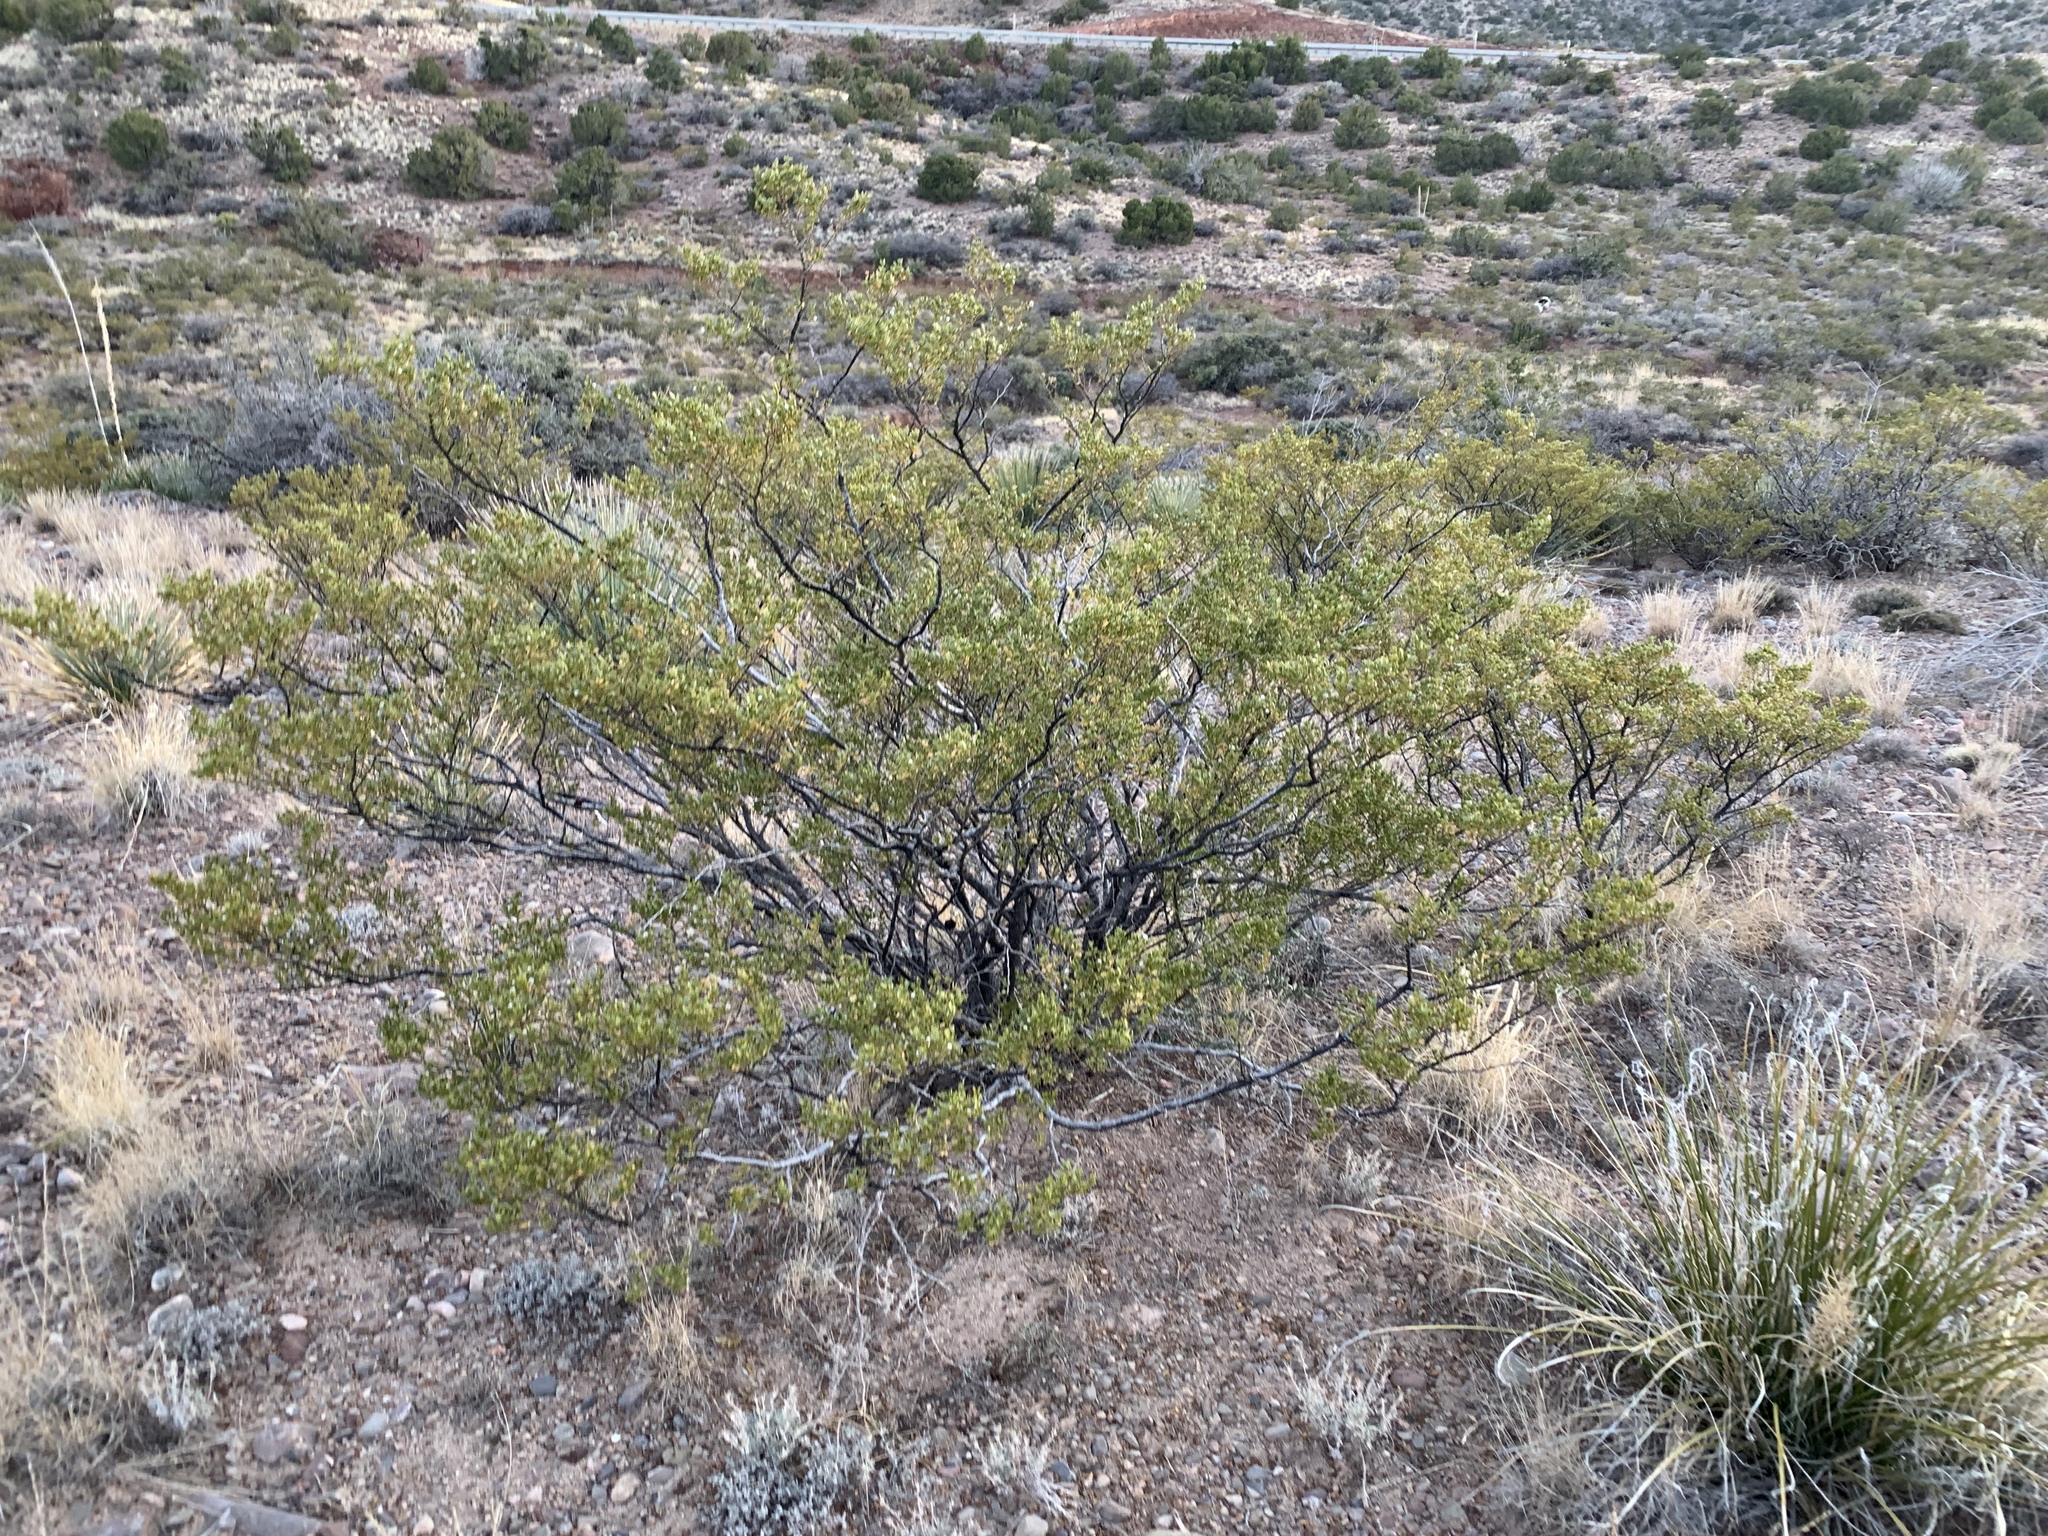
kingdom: Plantae
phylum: Tracheophyta
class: Magnoliopsida
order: Zygophyllales
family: Zygophyllaceae
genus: Larrea
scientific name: Larrea tridentata
